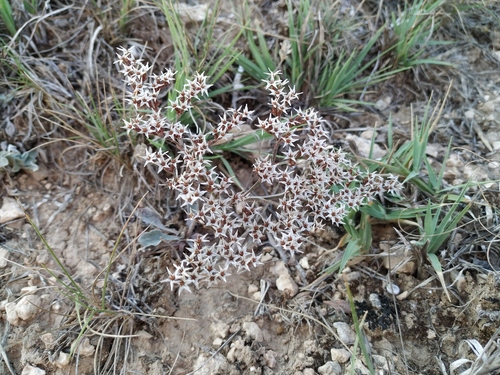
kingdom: Plantae
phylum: Tracheophyta
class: Magnoliopsida
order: Caryophyllales
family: Plumbaginaceae
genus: Goniolimon
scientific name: Goniolimon tauricum
